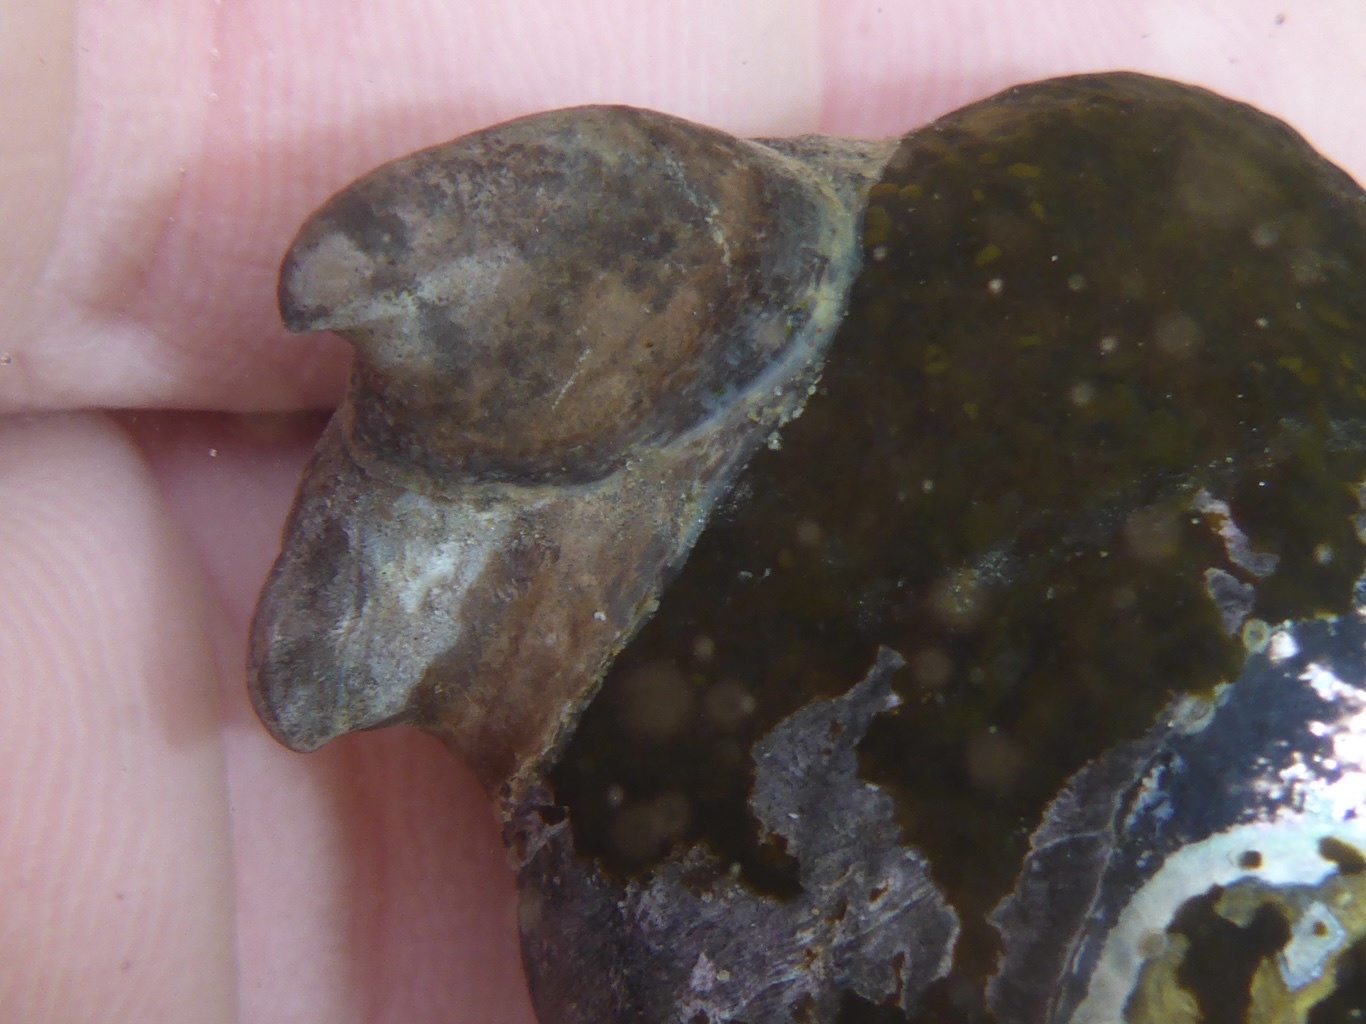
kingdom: Animalia
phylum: Mollusca
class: Gastropoda
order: Littorinimorpha
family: Calyptraeidae
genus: Crepidula
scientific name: Crepidula adunca
